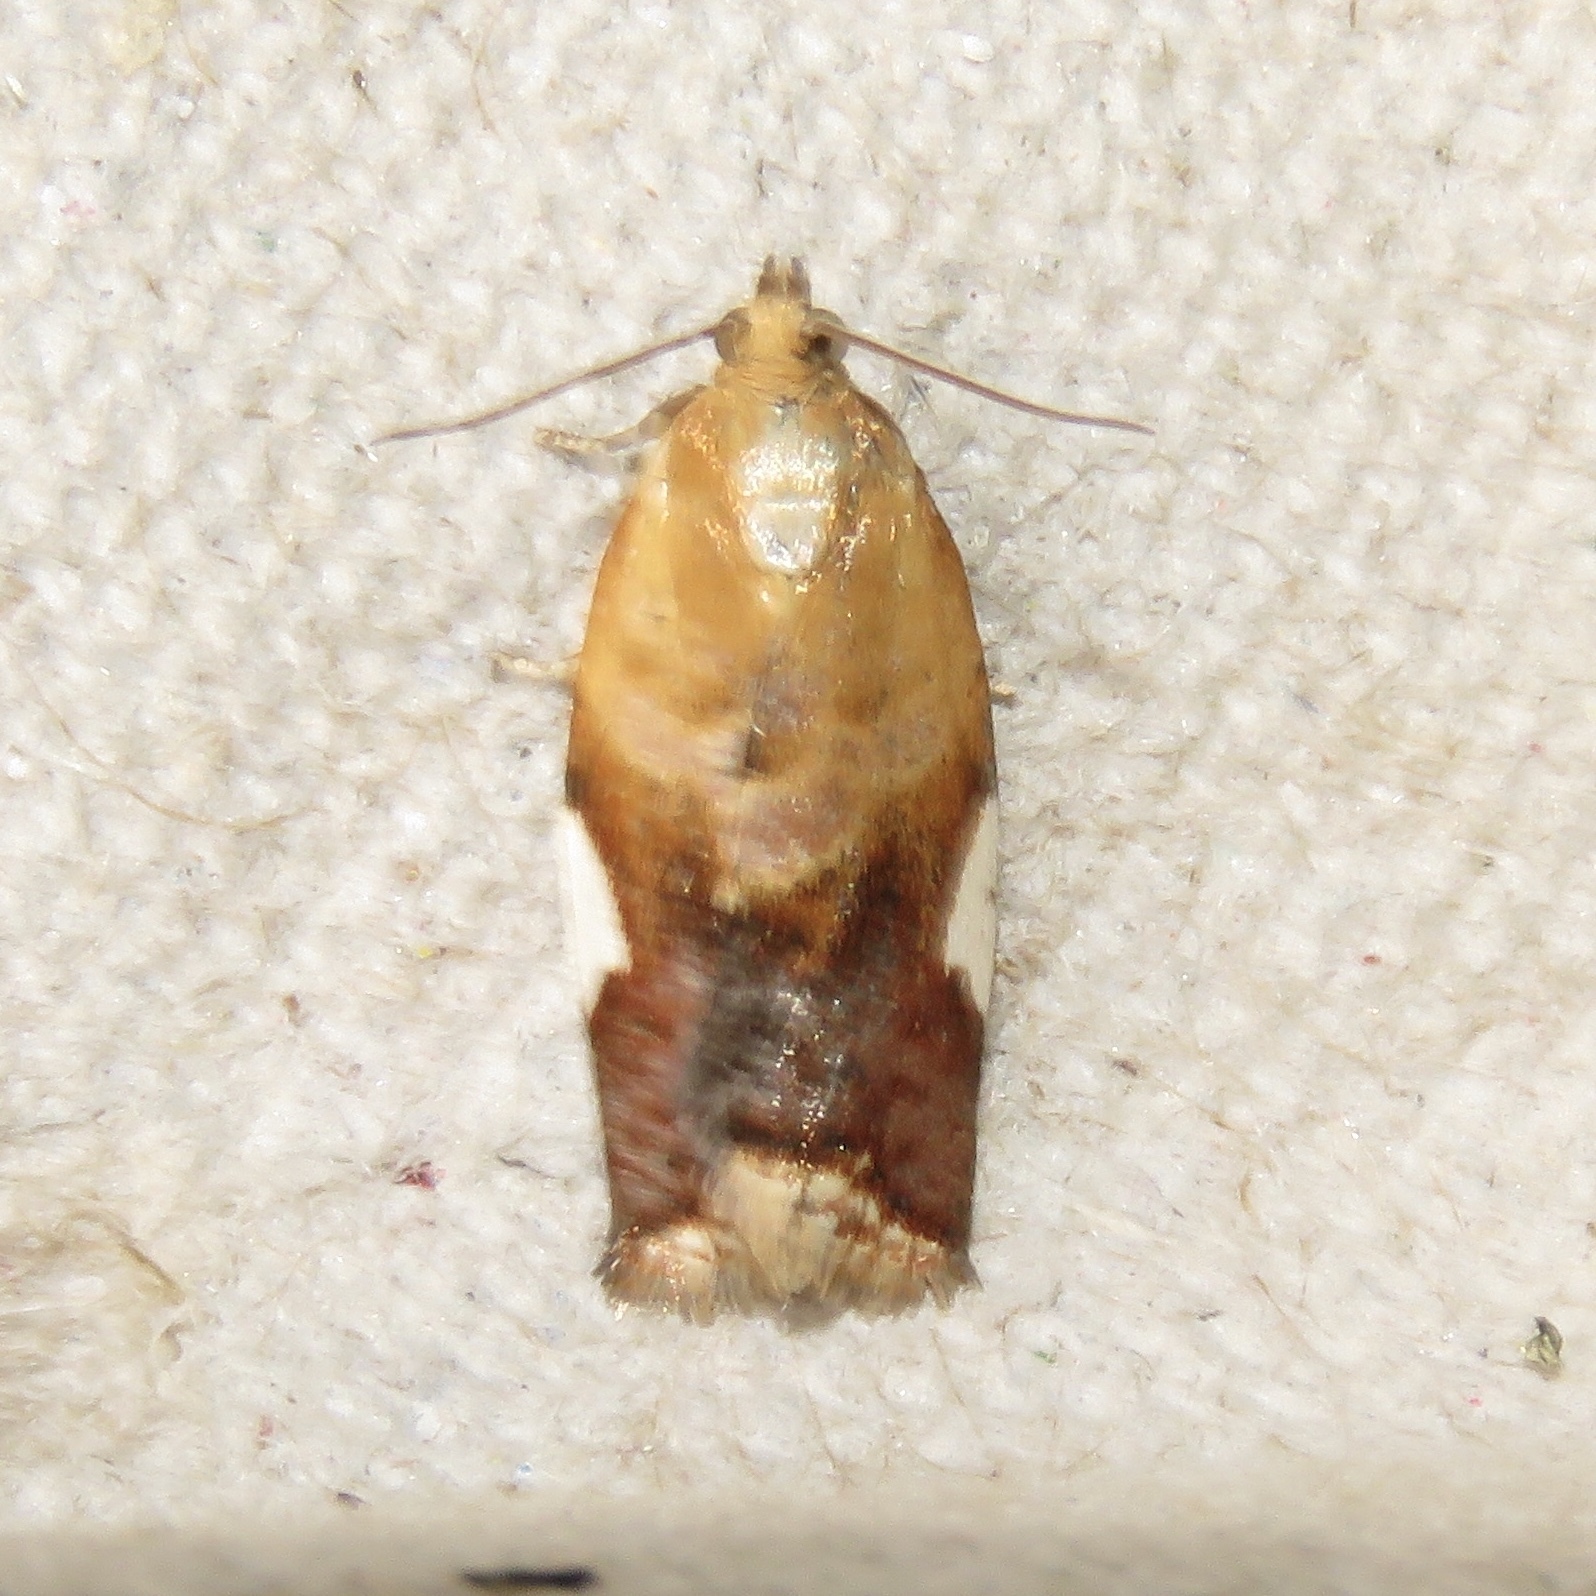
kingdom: Animalia
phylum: Arthropoda
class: Insecta
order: Lepidoptera
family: Tortricidae
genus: Clepsis
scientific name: Clepsis persicana
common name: White triangle tortrix
